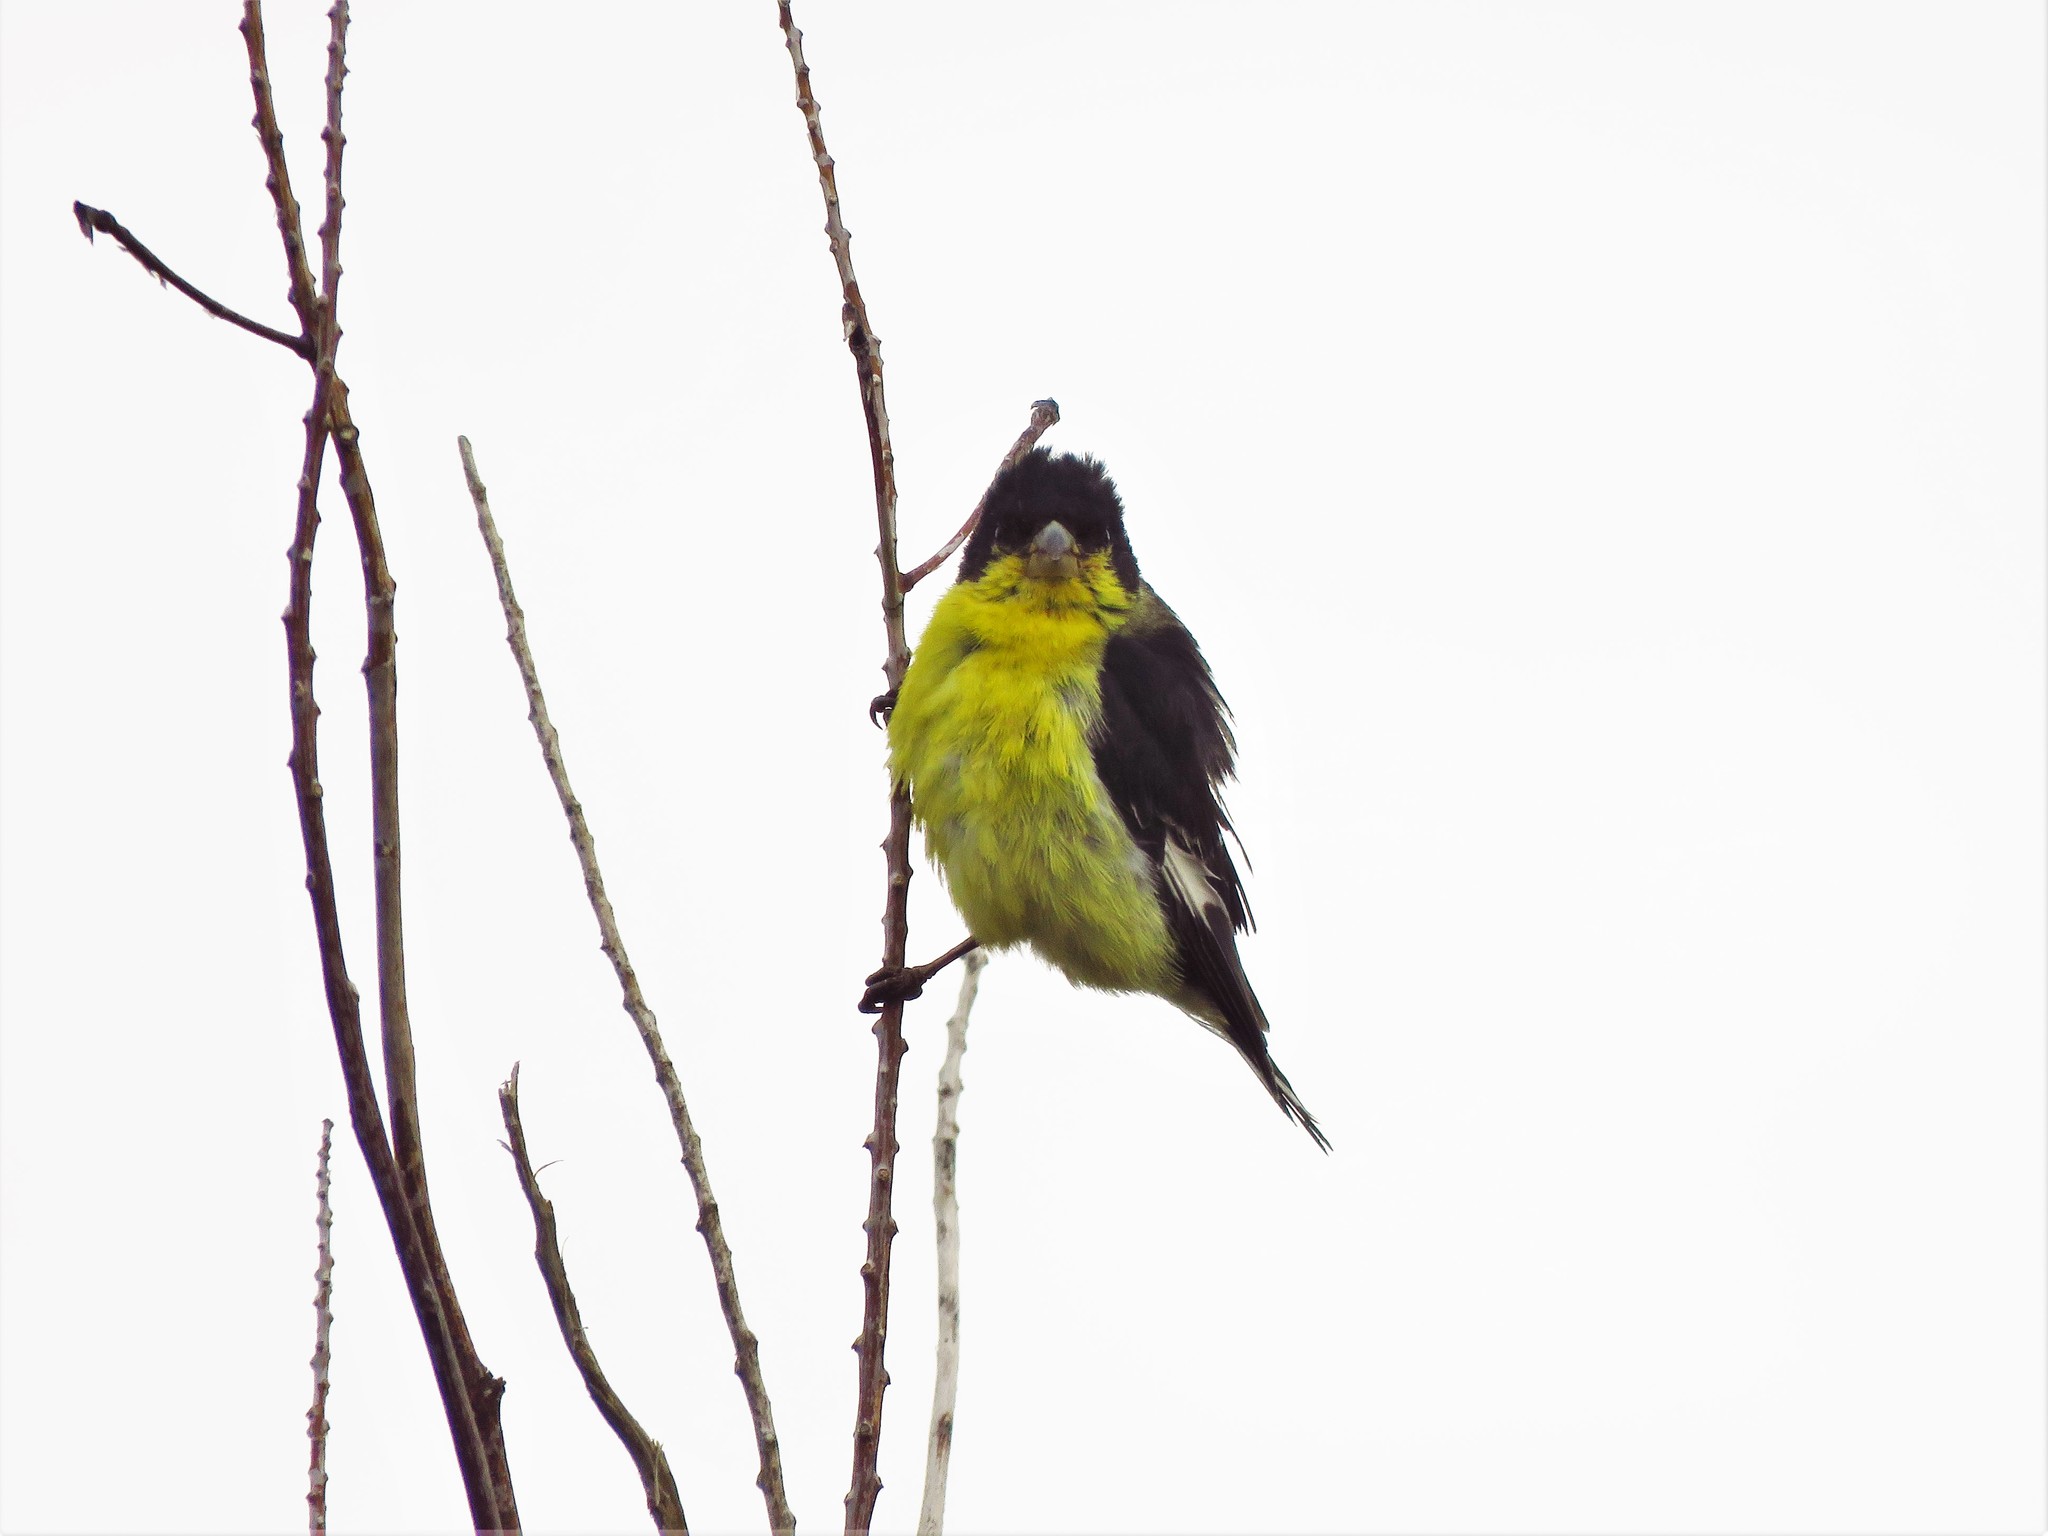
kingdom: Animalia
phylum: Chordata
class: Aves
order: Passeriformes
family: Fringillidae
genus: Spinus
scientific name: Spinus psaltria
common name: Lesser goldfinch
